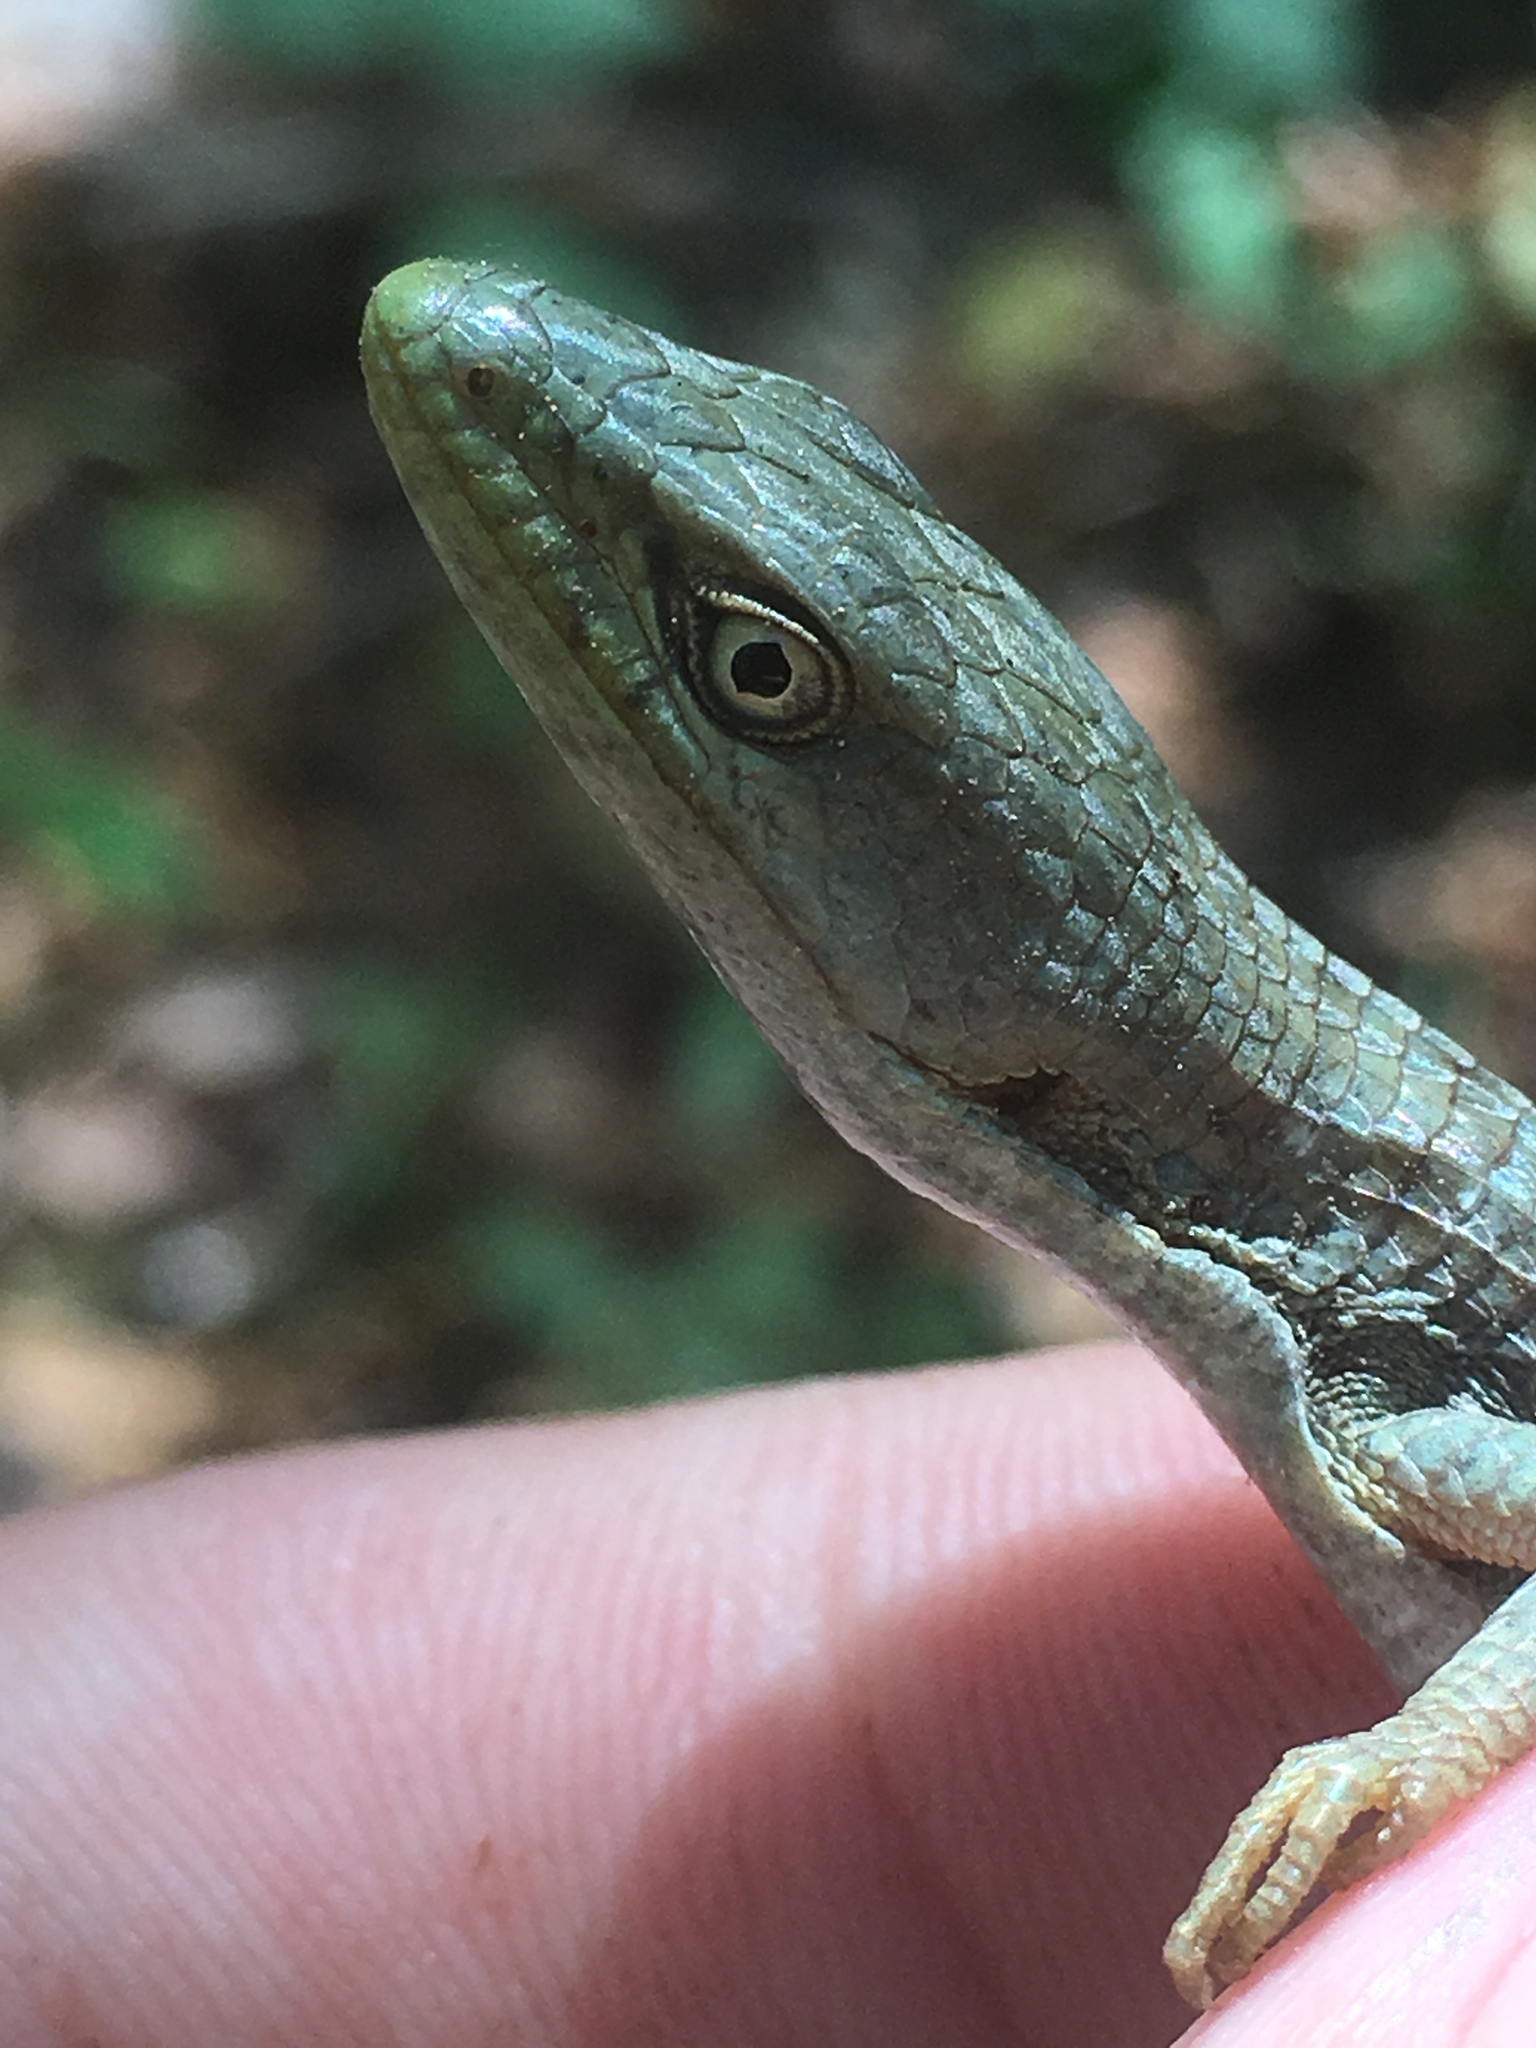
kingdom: Animalia
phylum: Chordata
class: Squamata
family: Anguidae
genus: Elgaria
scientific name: Elgaria multicarinata
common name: Southern alligator lizard
